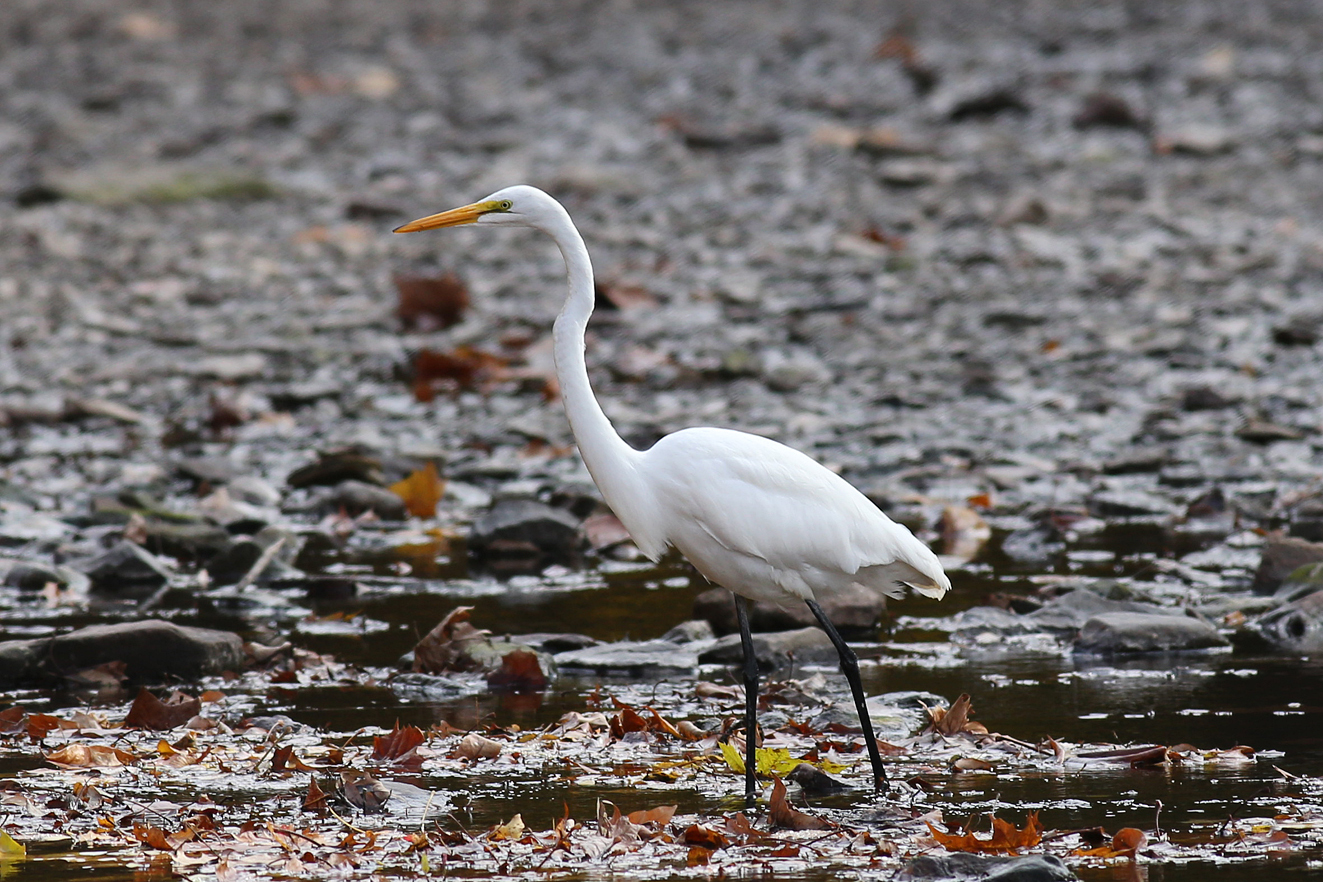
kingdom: Animalia
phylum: Chordata
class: Aves
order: Pelecaniformes
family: Ardeidae
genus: Ardea
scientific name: Ardea alba
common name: Great egret
